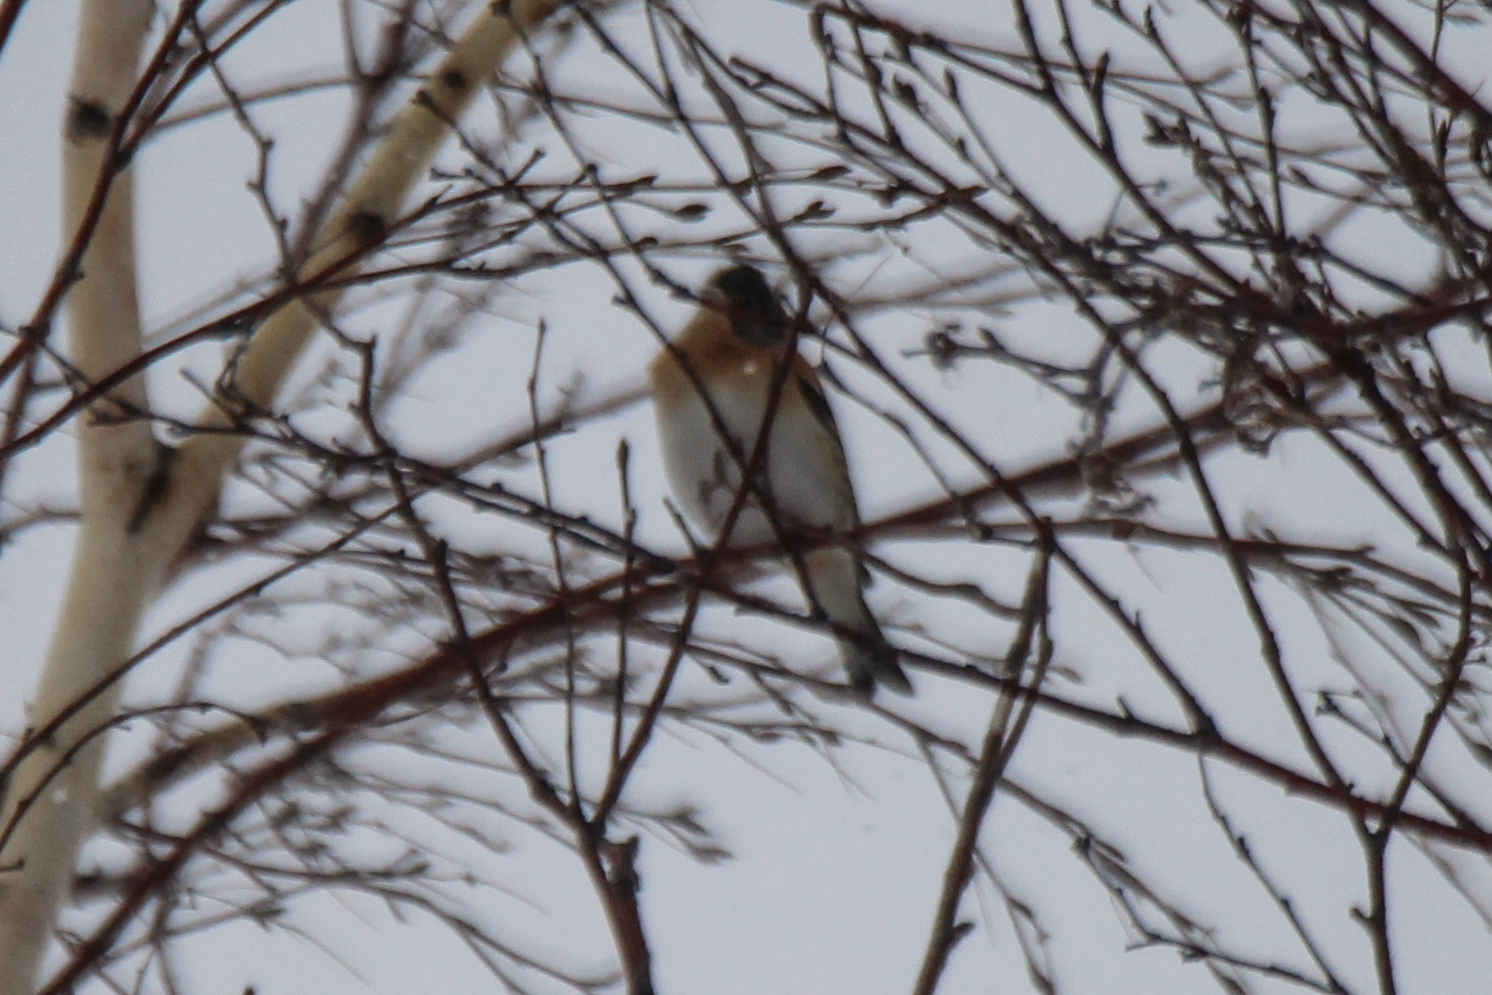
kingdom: Animalia
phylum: Chordata
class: Aves
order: Passeriformes
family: Fringillidae
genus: Fringilla
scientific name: Fringilla montifringilla
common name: Brambling
